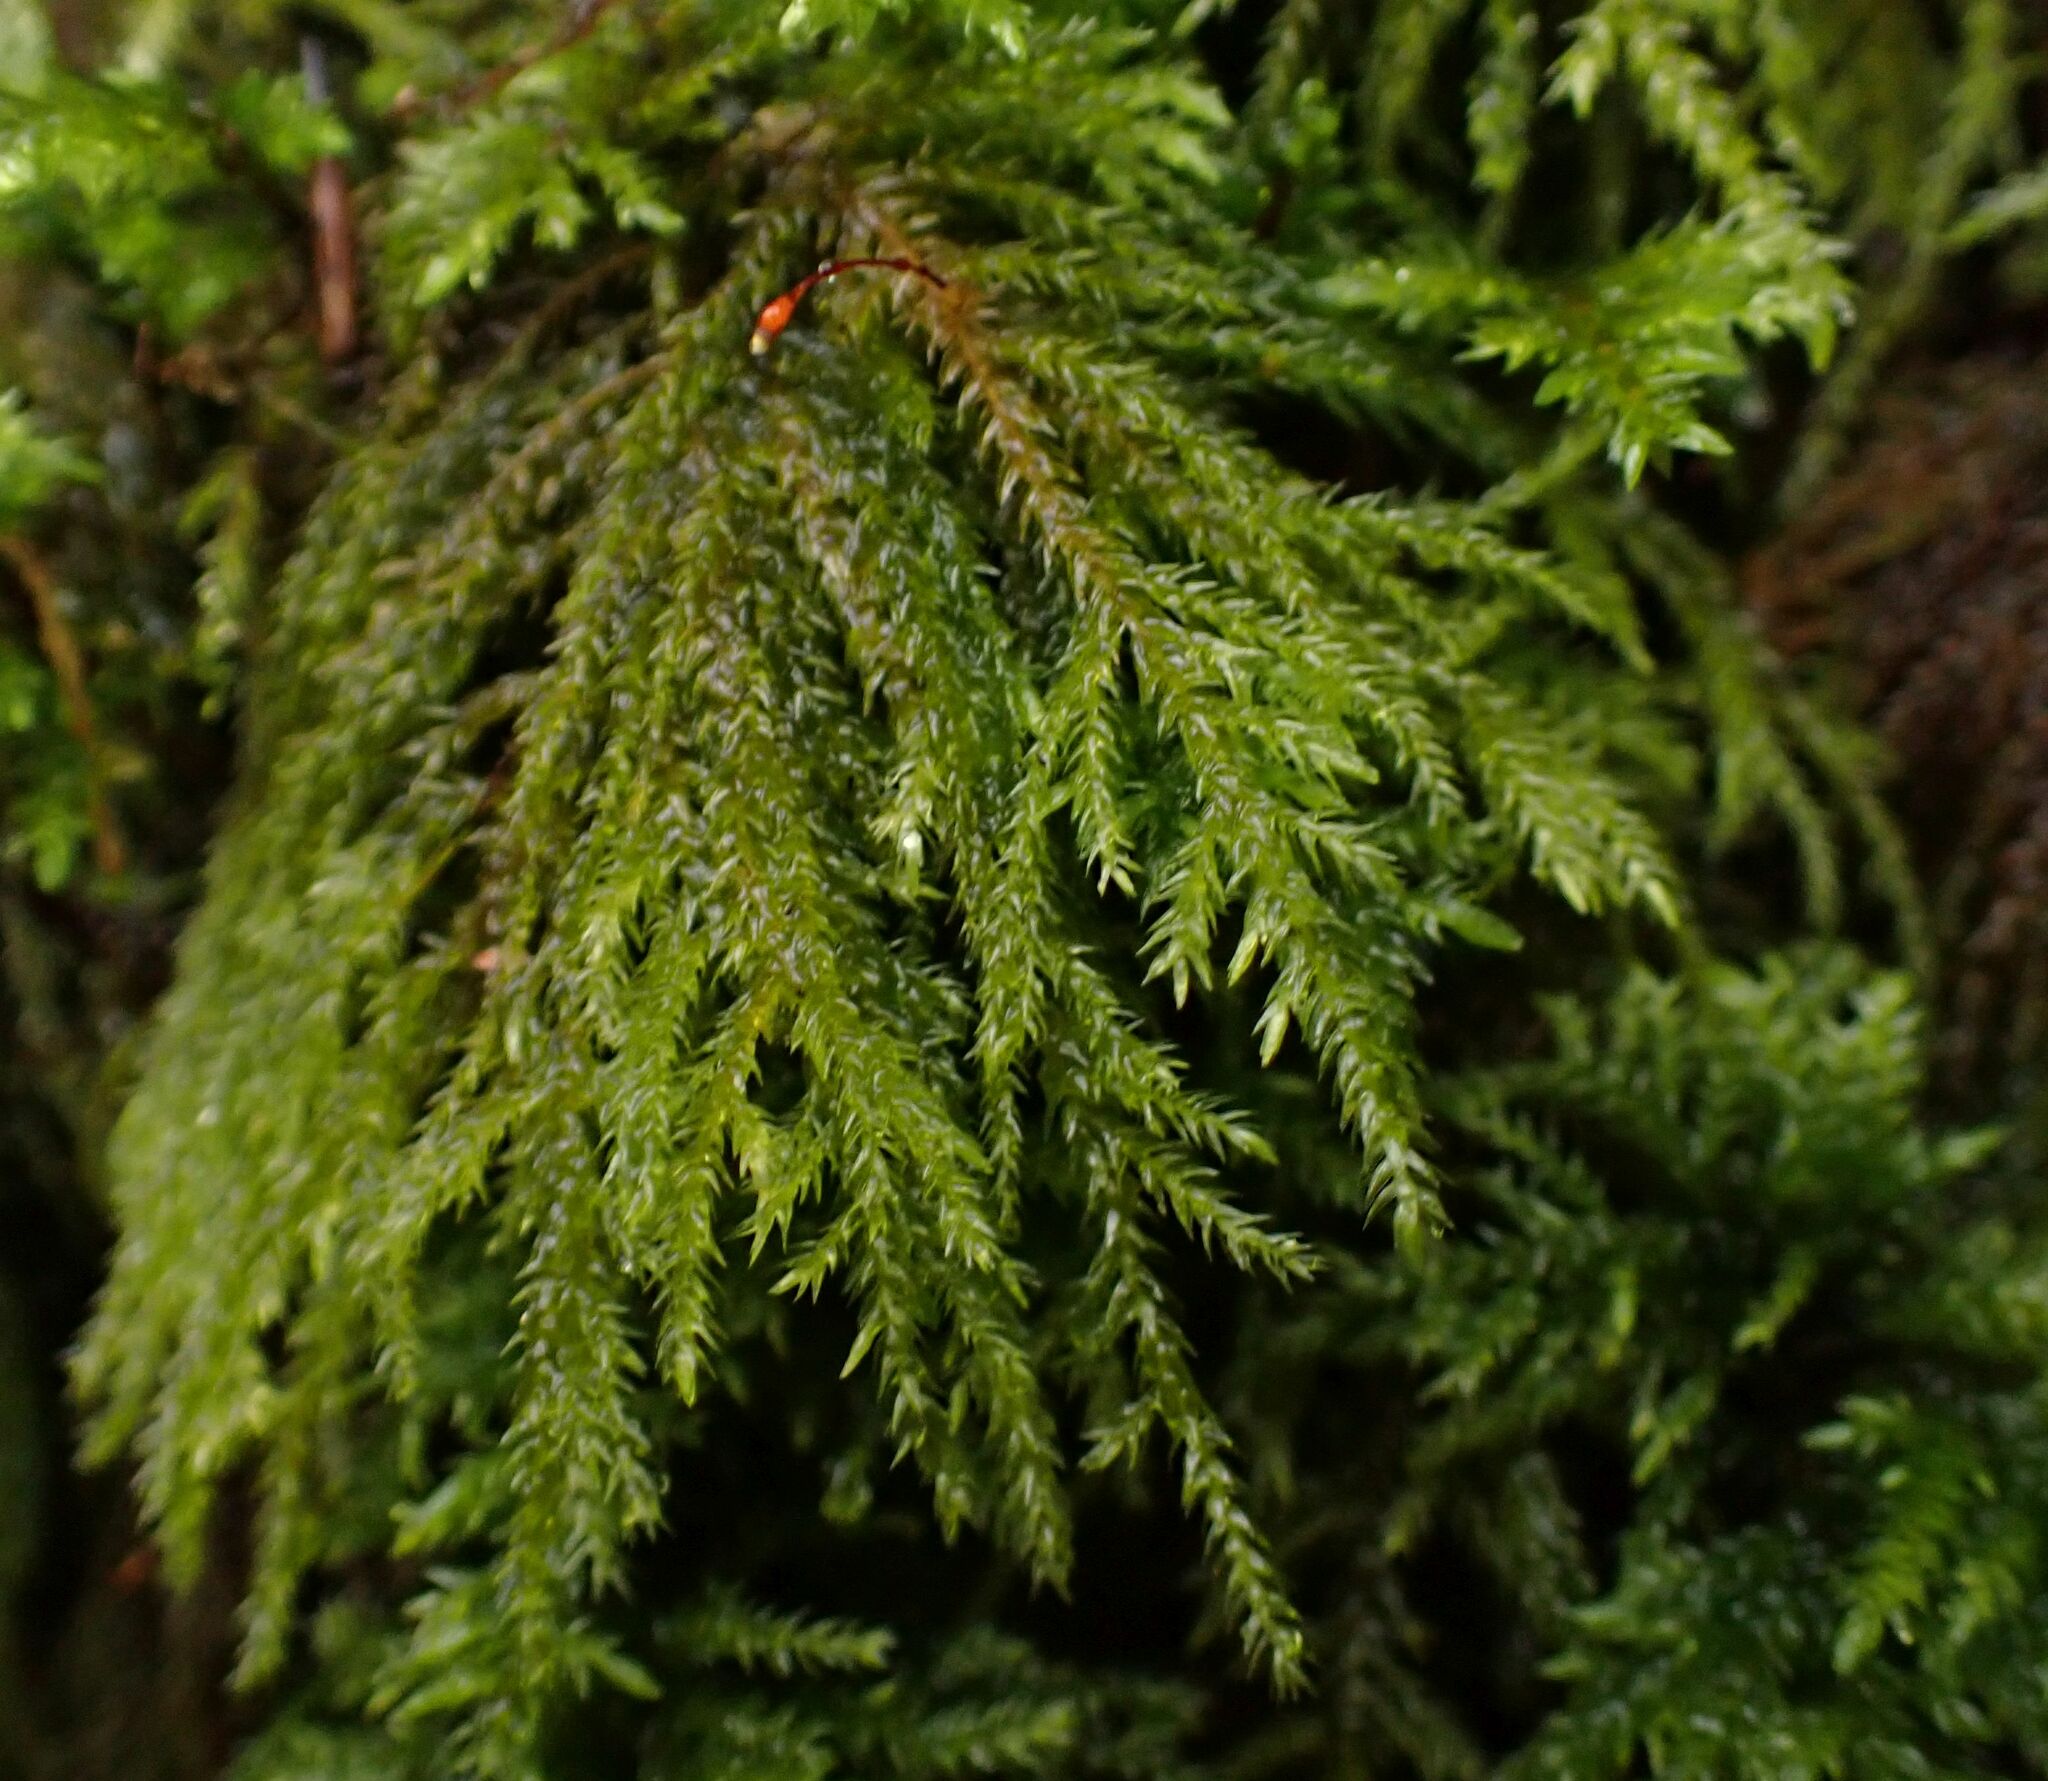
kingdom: Plantae
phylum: Bryophyta
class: Bryopsida
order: Hypnales
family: Neckeraceae
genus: Thamnobryum
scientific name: Thamnobryum alopecurum
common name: Fox-tail feather-moss
